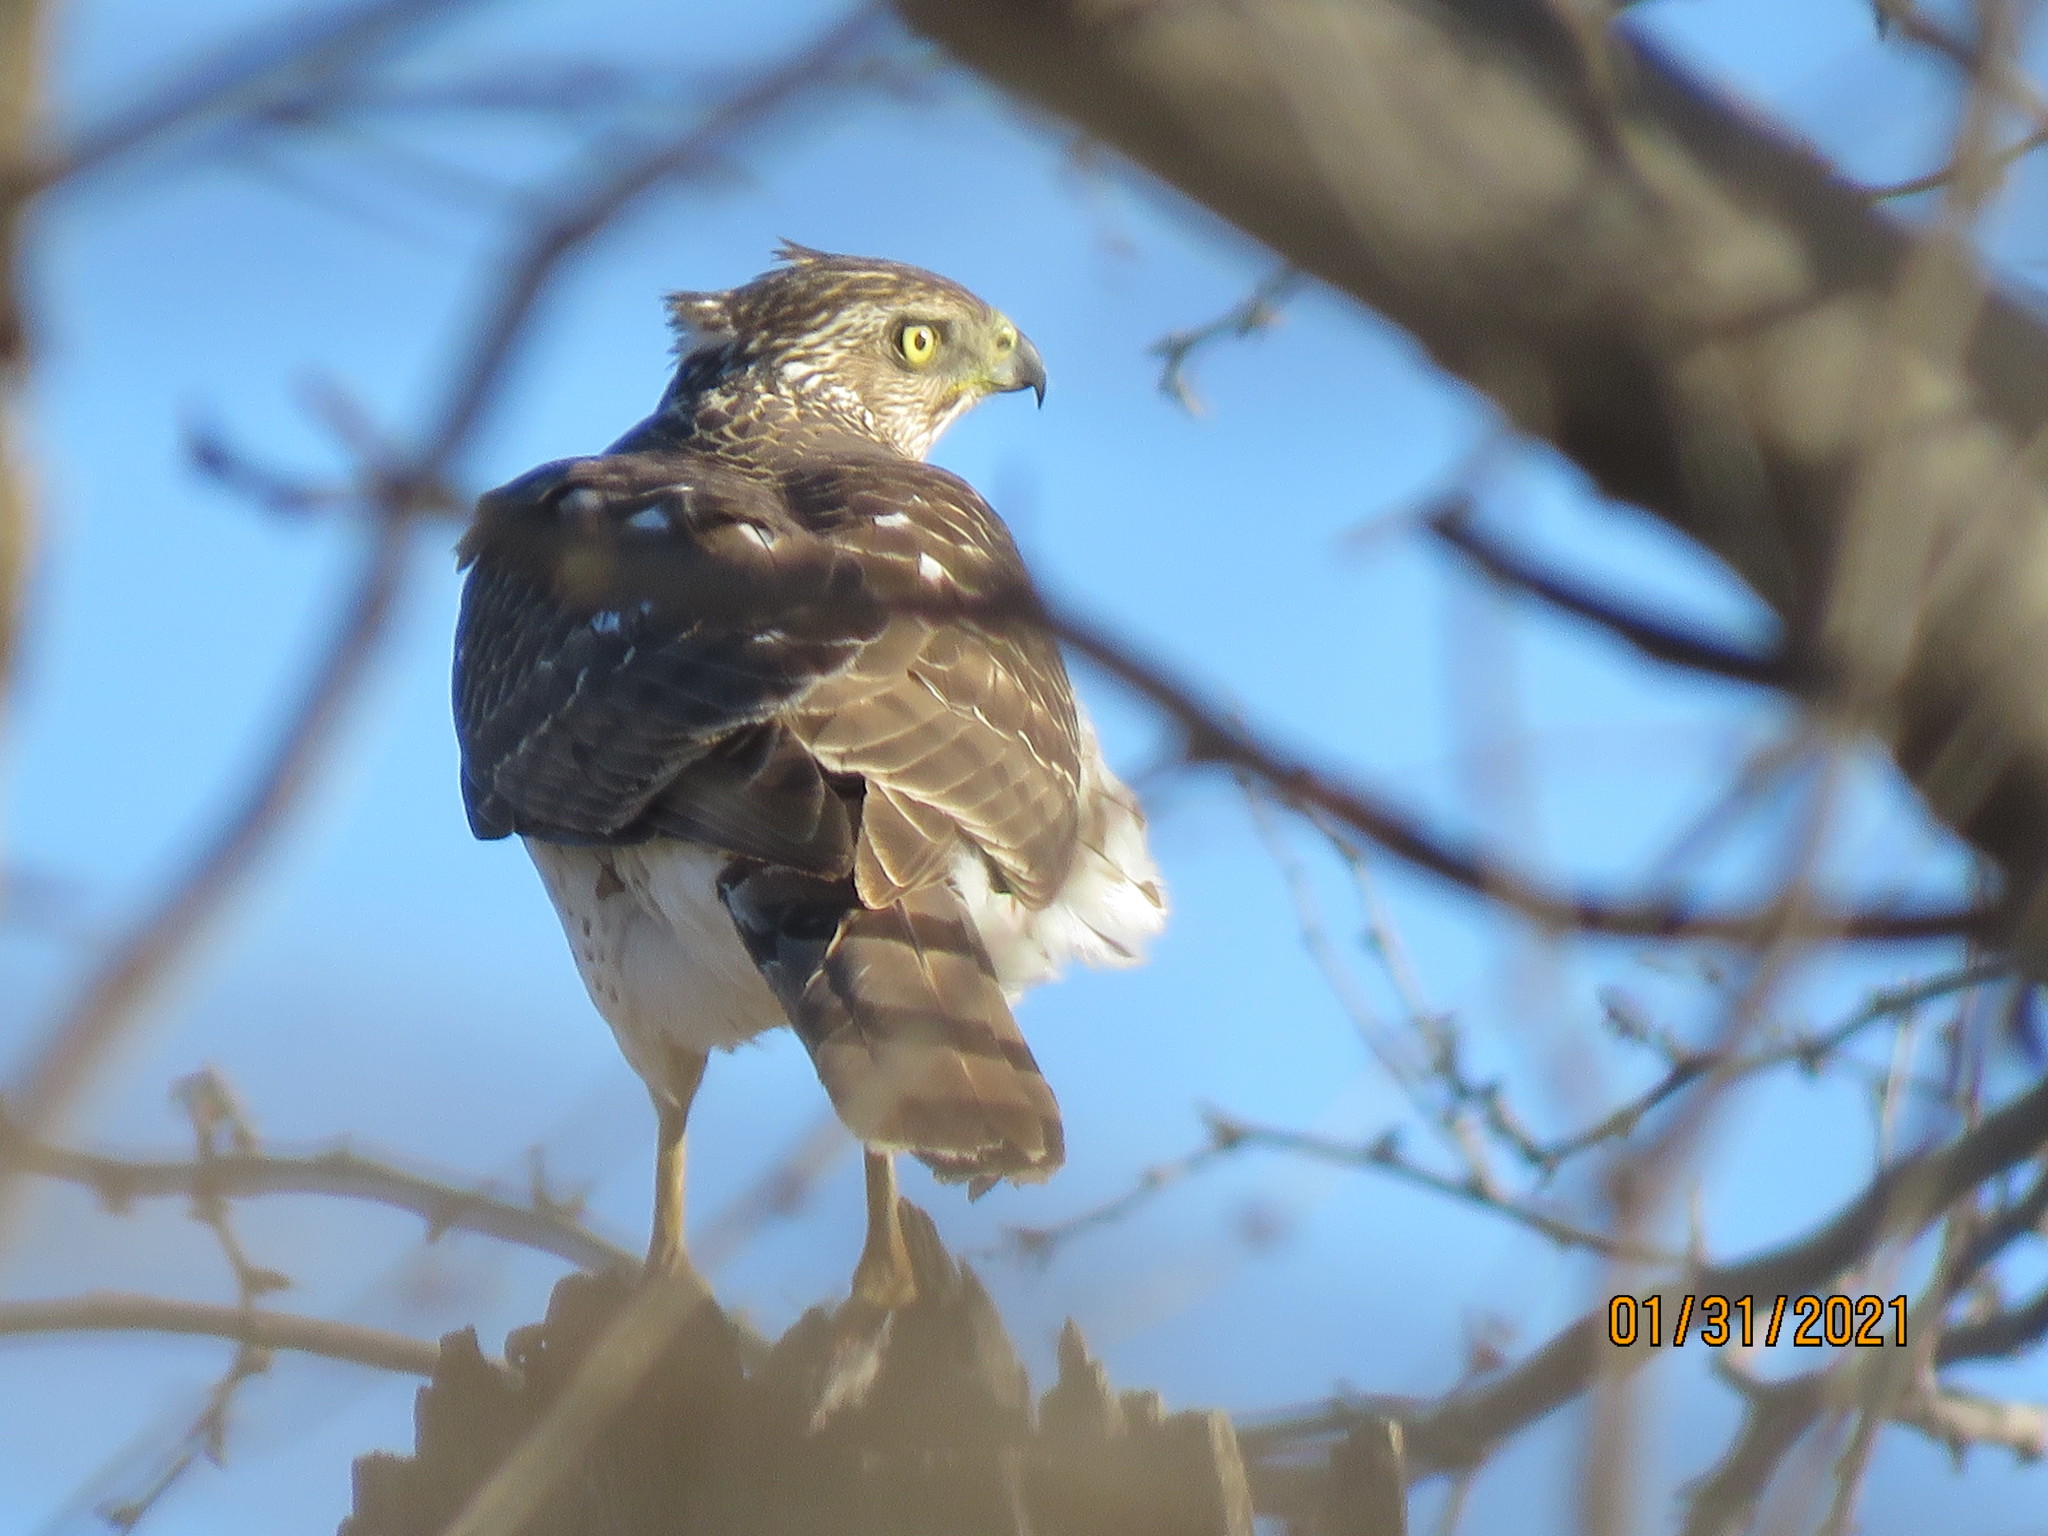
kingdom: Animalia
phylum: Chordata
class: Aves
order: Accipitriformes
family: Accipitridae
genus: Accipiter
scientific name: Accipiter cooperii
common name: Cooper's hawk
